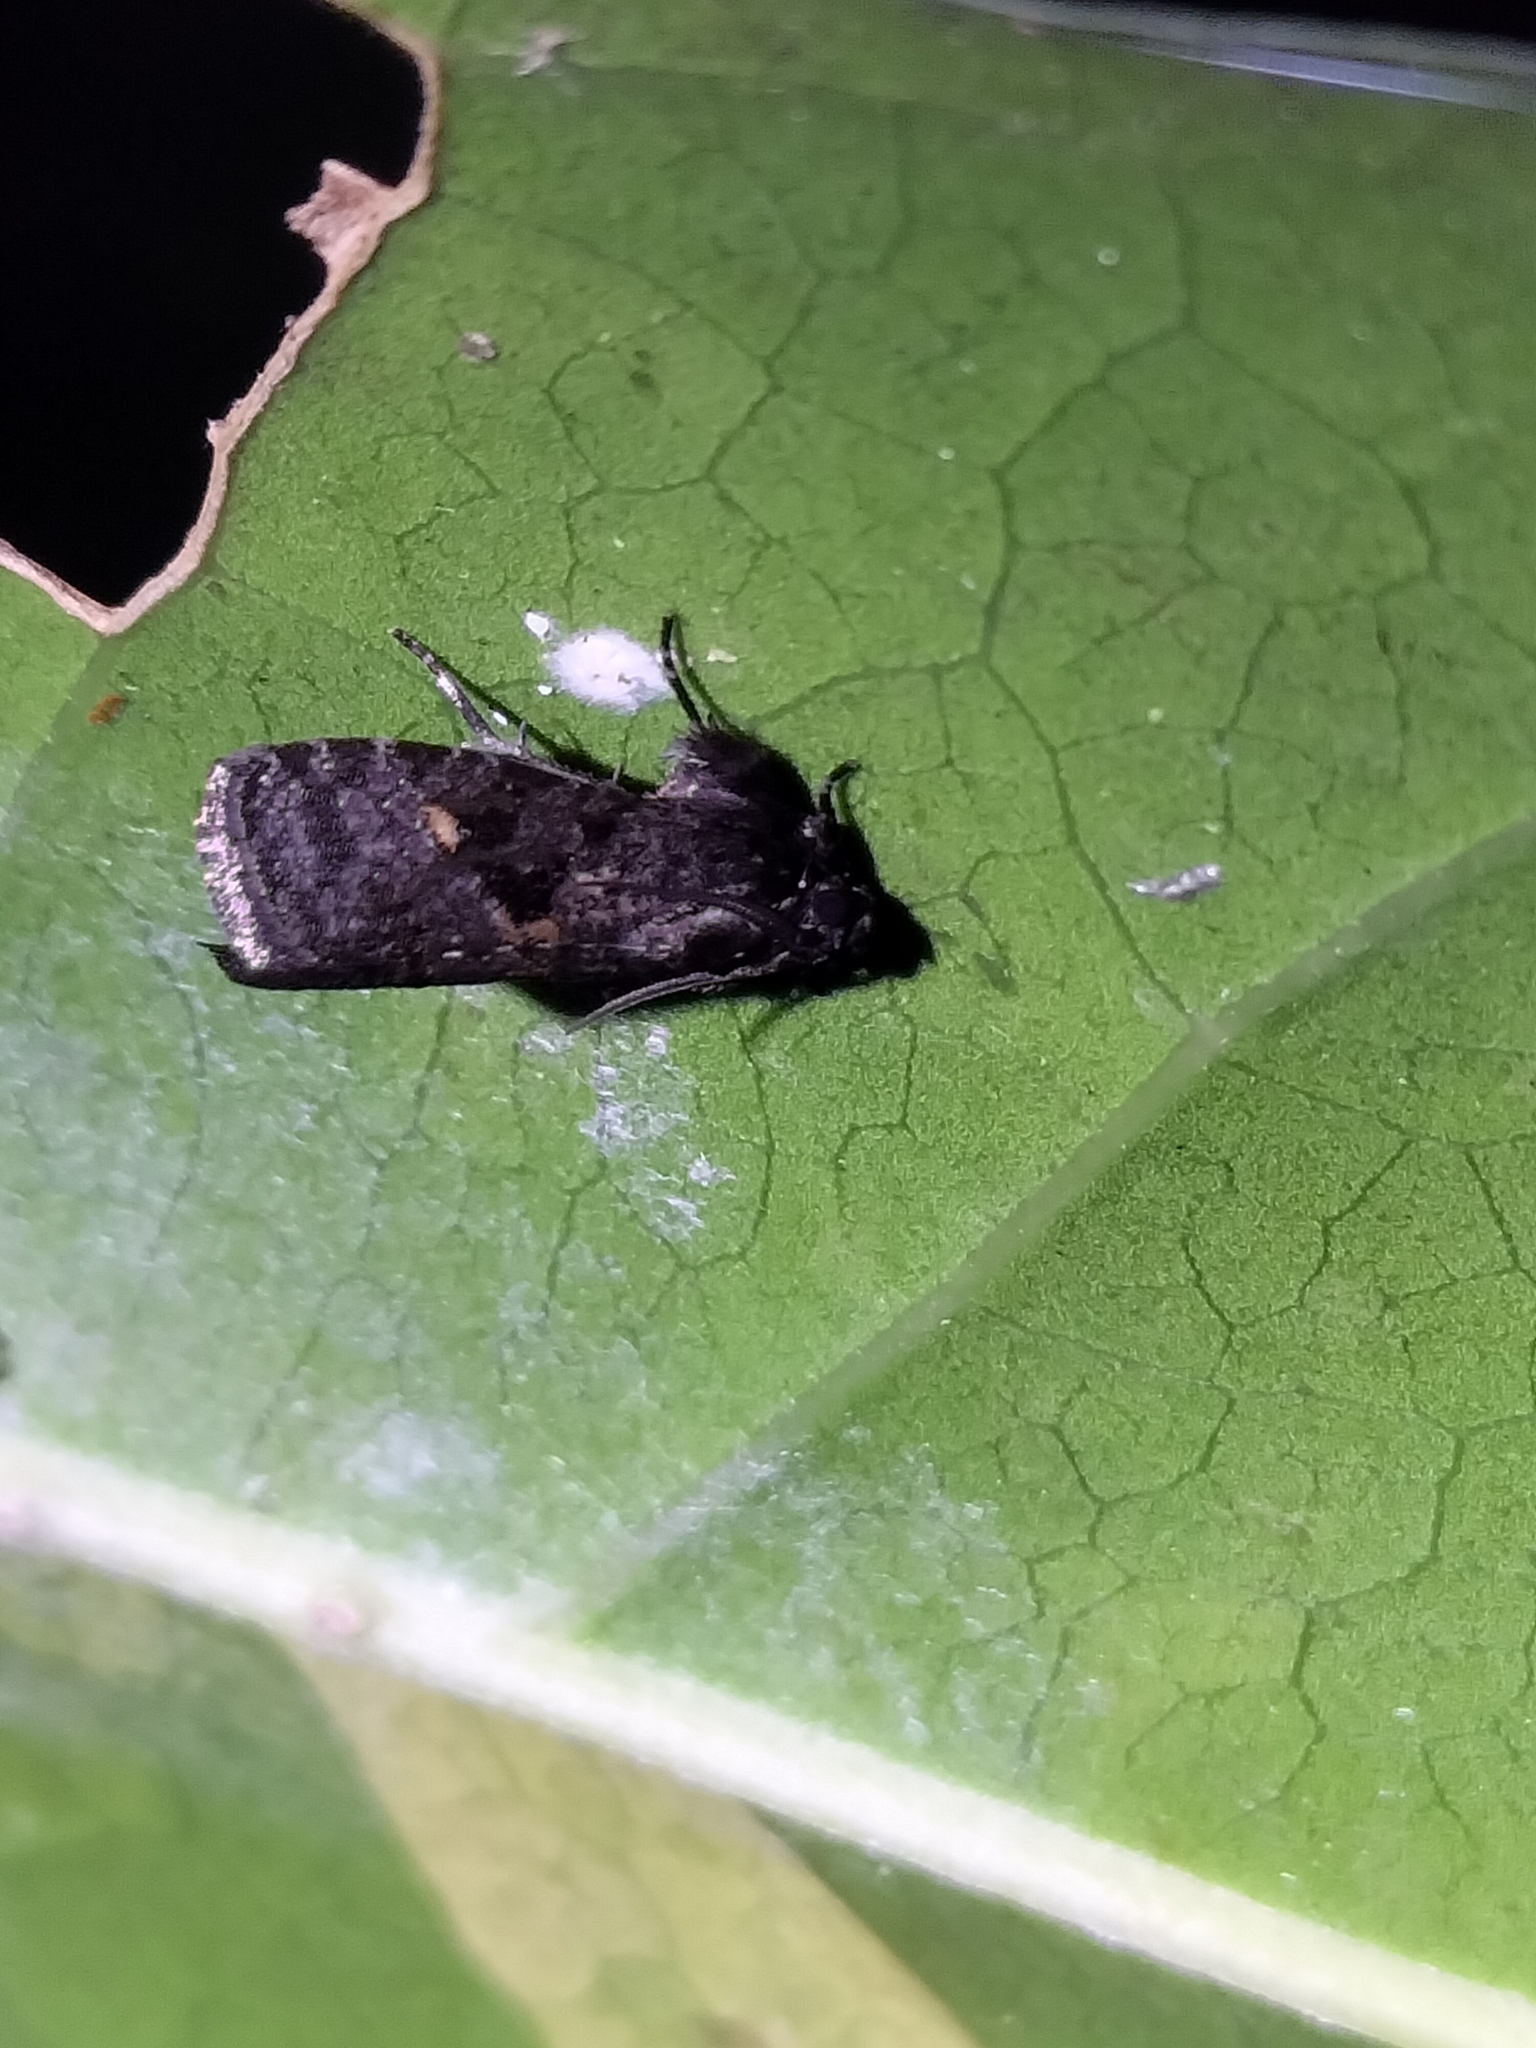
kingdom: Animalia
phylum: Arthropoda
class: Insecta
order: Lepidoptera
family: Tortricidae
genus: Cryptaspasma
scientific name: Cryptaspasma brachyptycha
